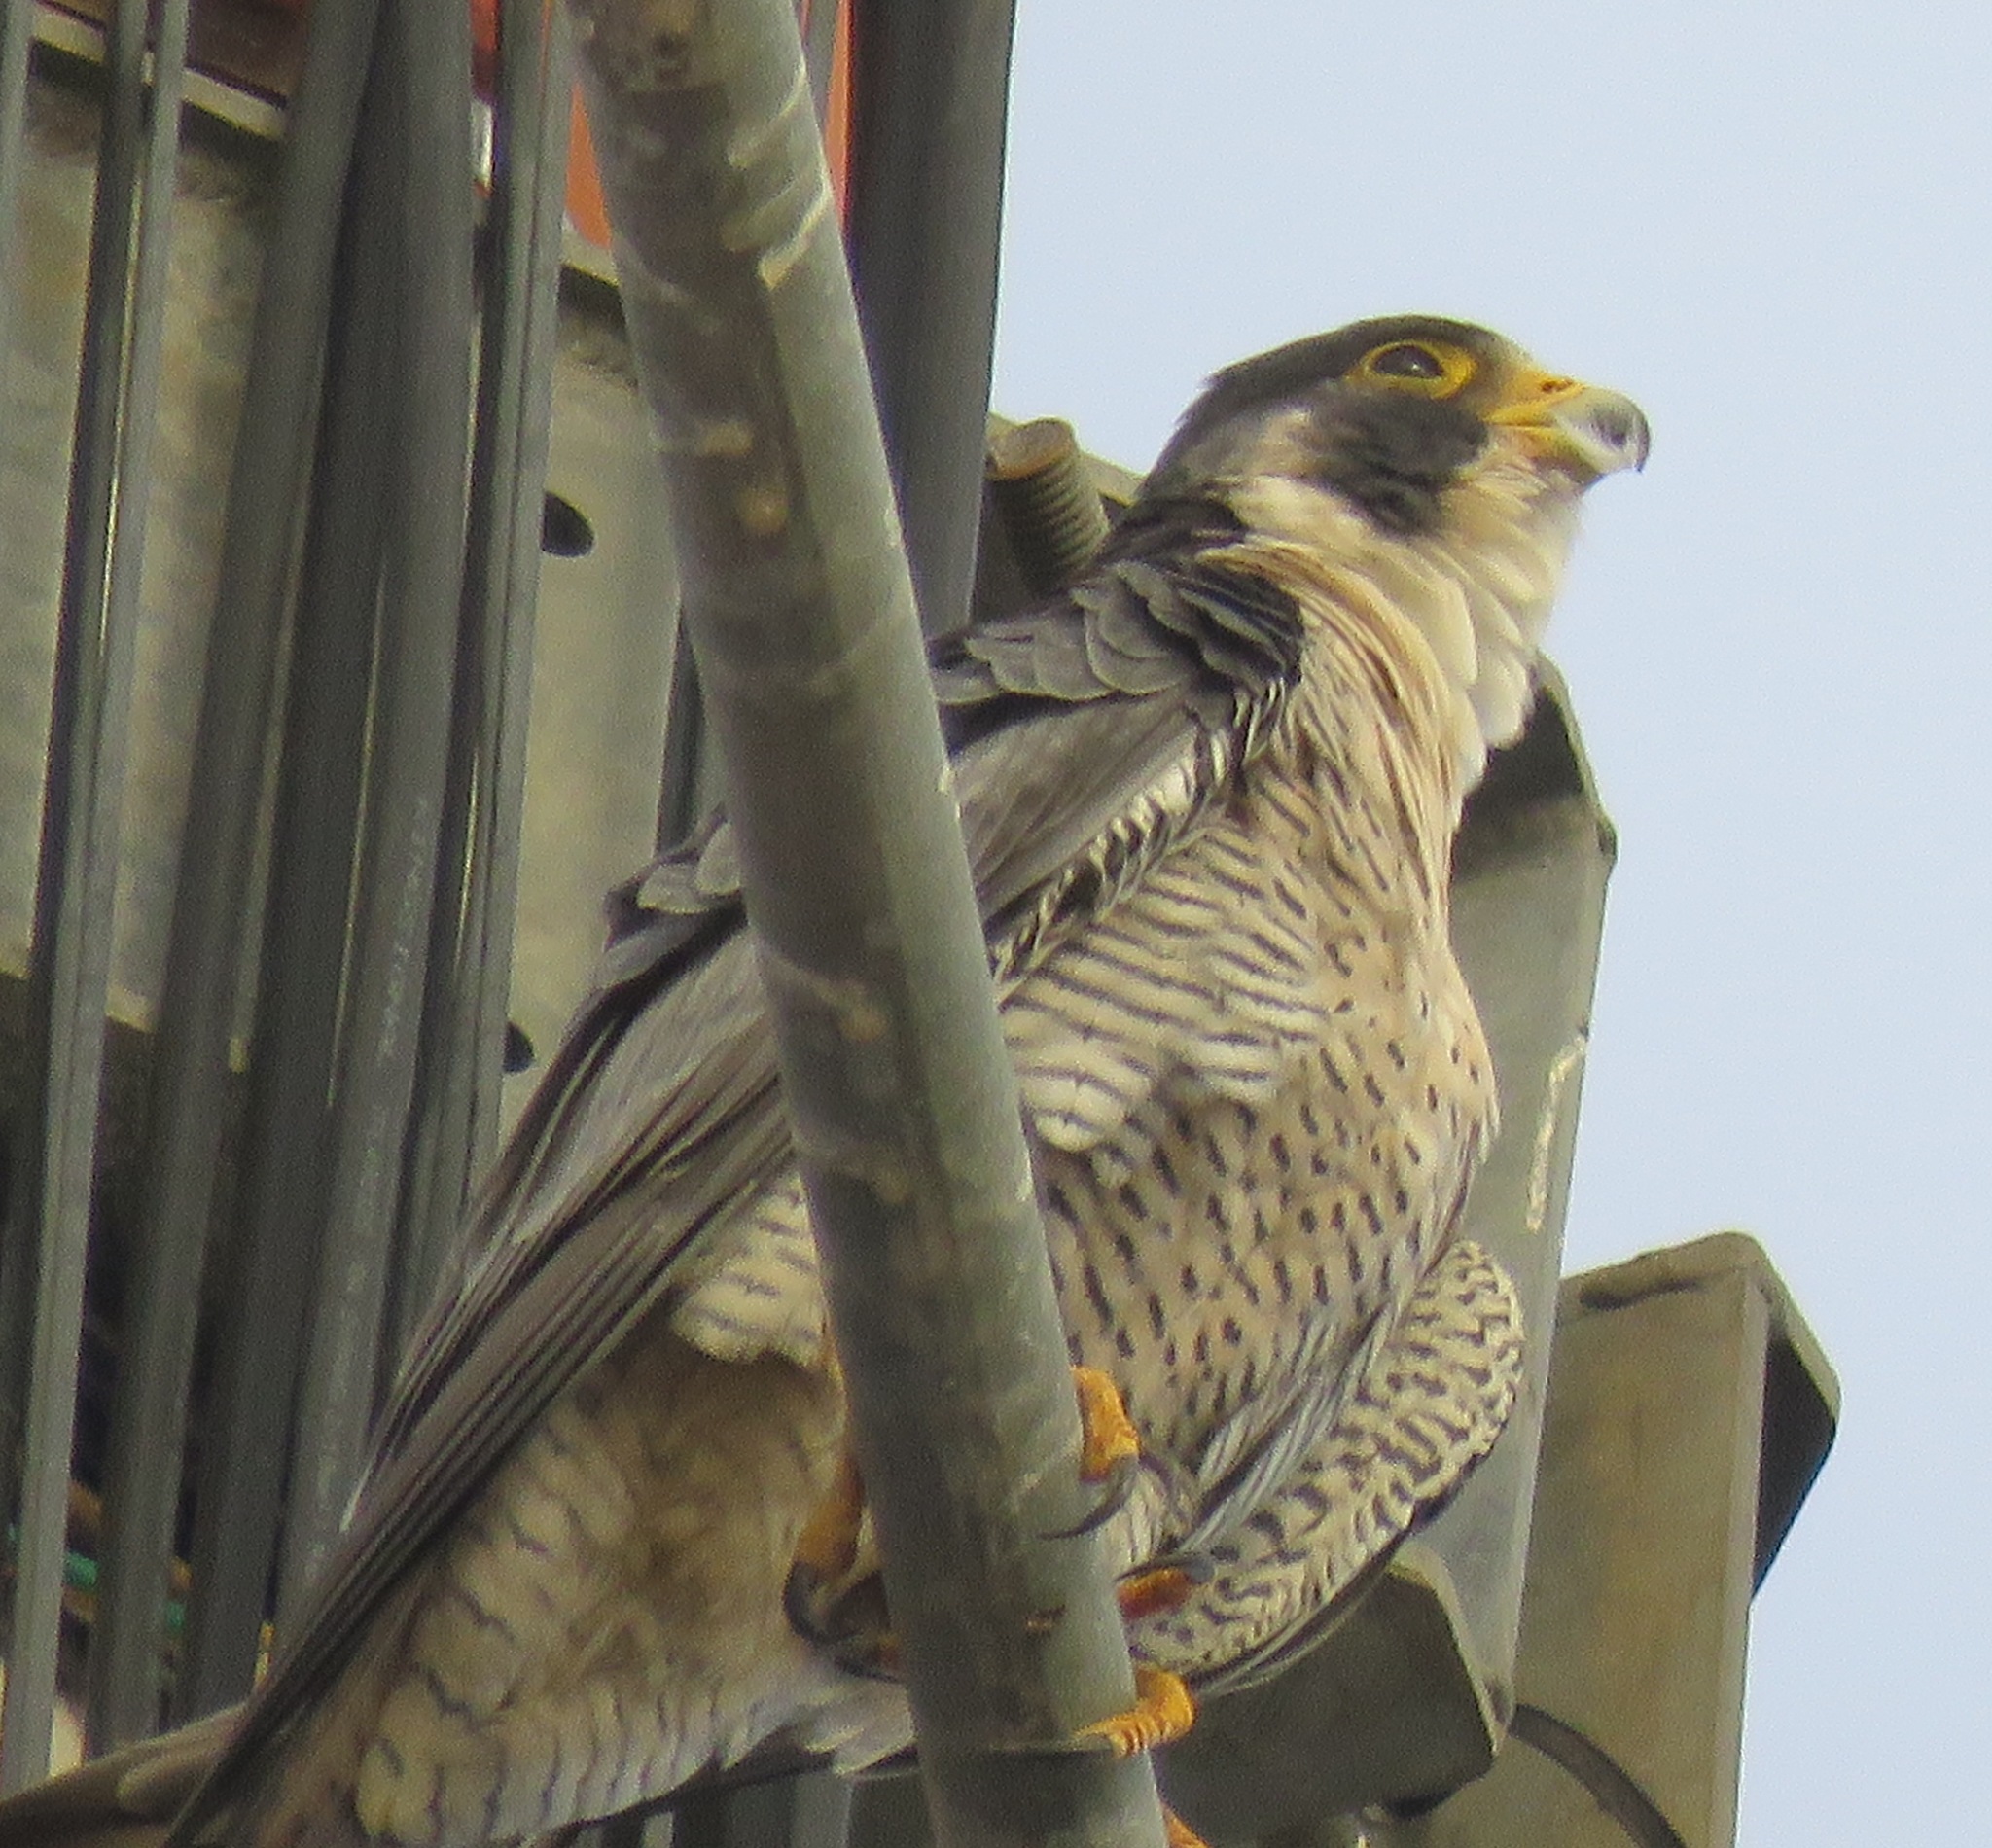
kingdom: Animalia
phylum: Chordata
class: Aves
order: Falconiformes
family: Falconidae
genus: Falco
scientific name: Falco peregrinus
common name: Peregrine falcon
